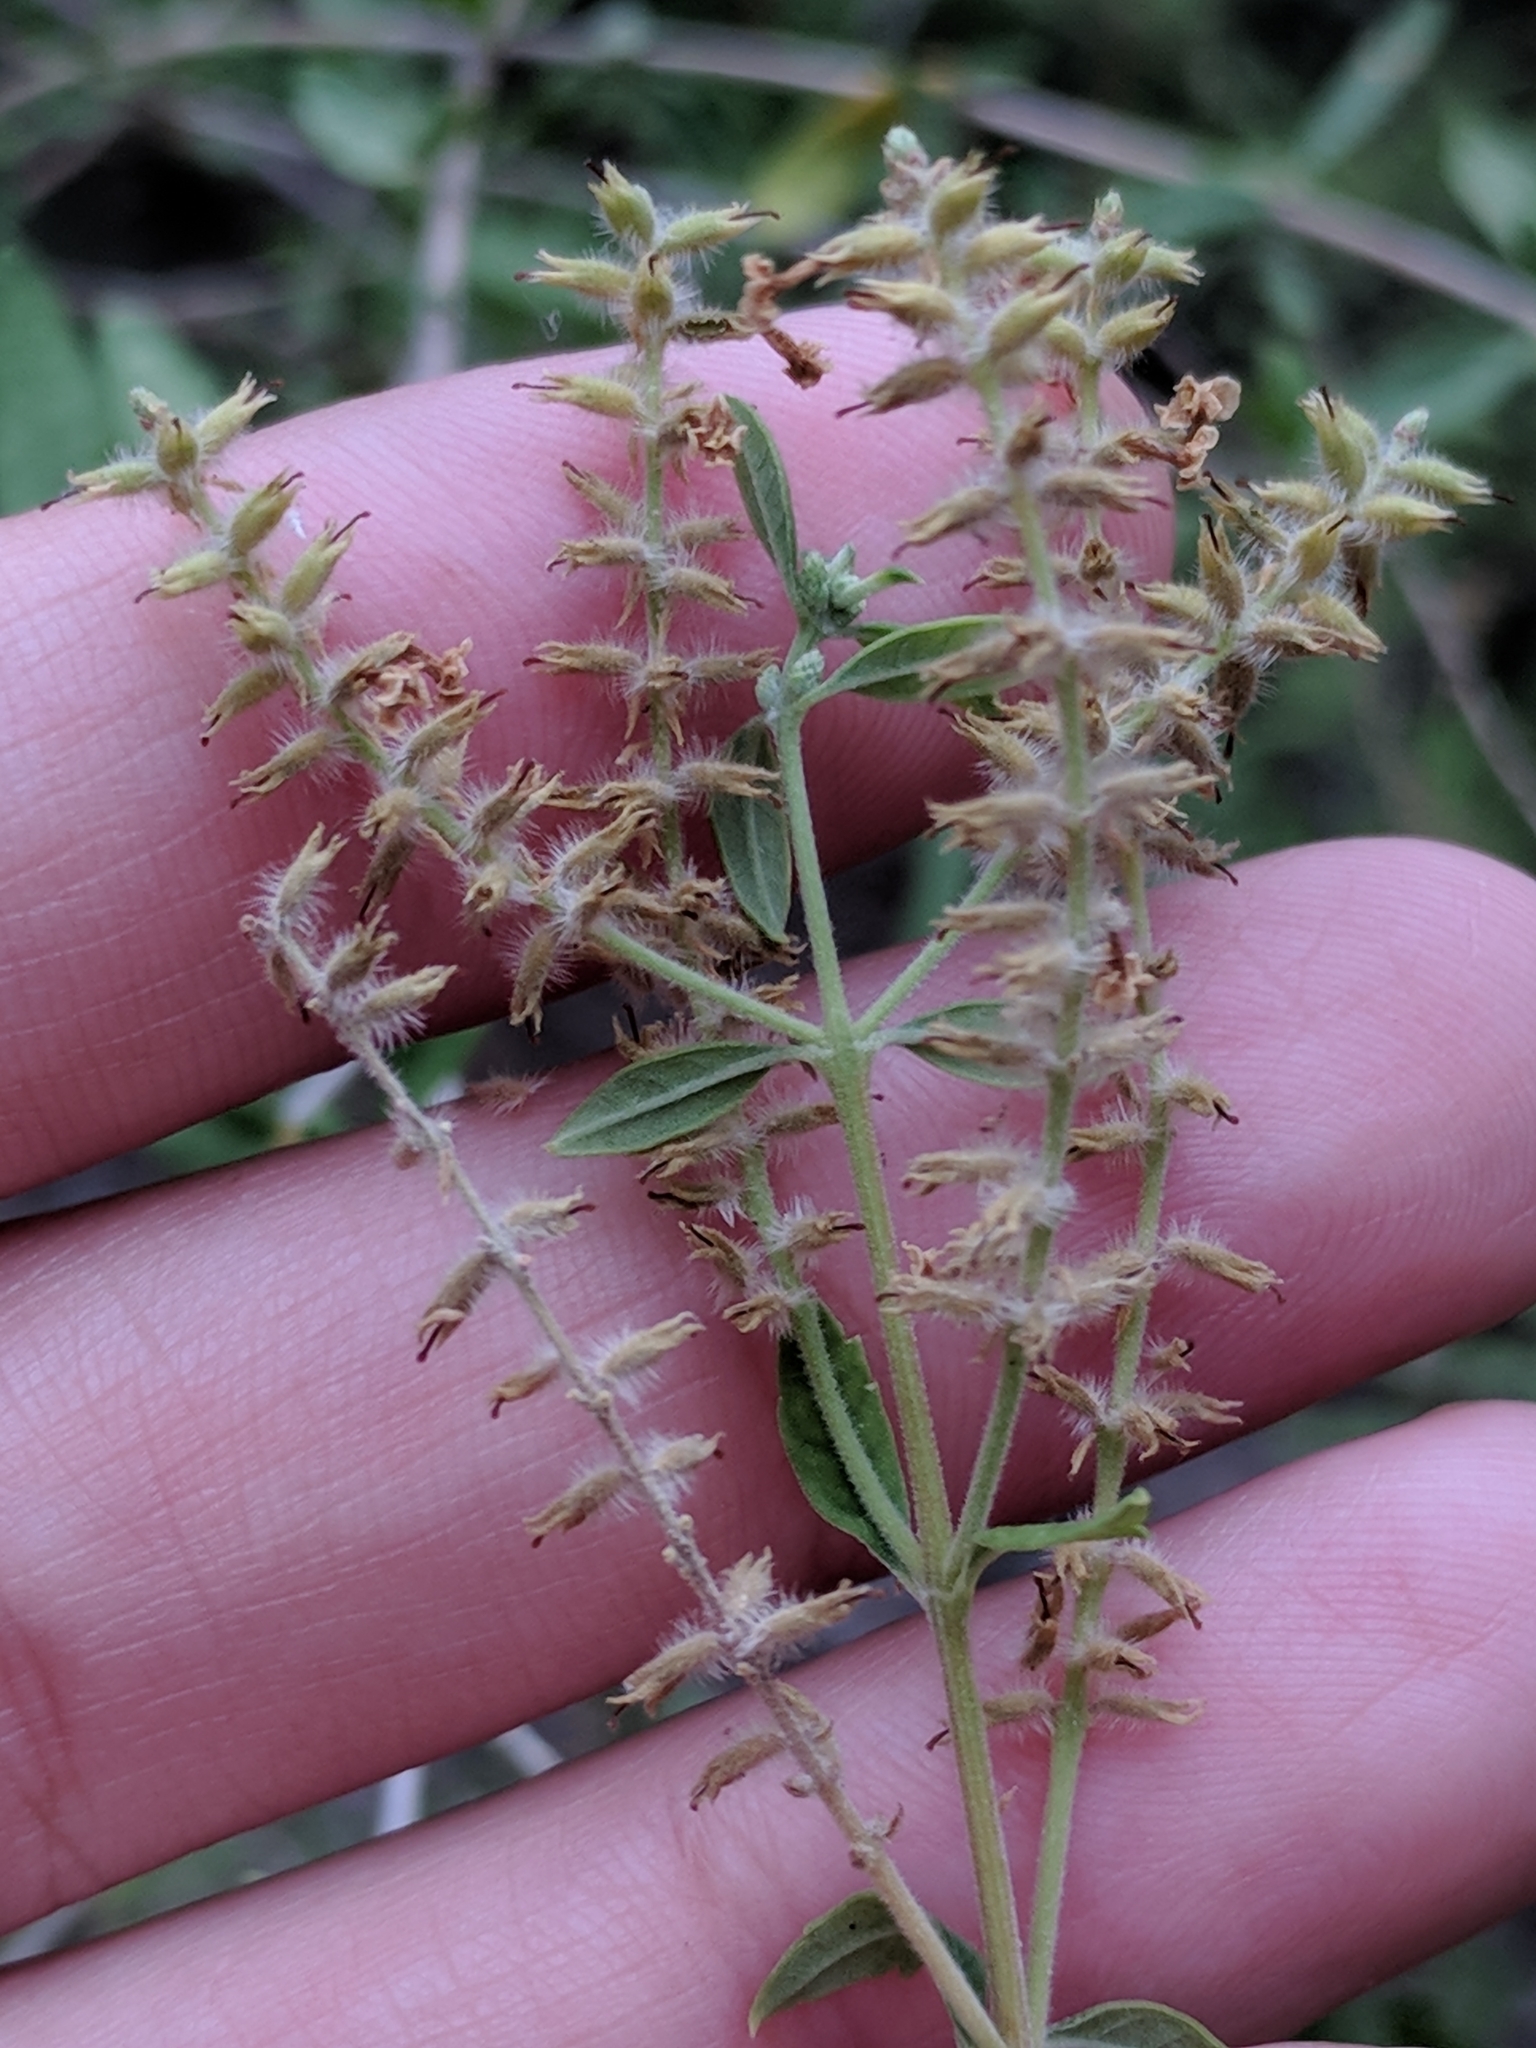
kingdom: Plantae
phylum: Tracheophyta
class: Magnoliopsida
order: Lamiales
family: Verbenaceae
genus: Aloysia
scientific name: Aloysia gratissima
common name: Common bee-brush
